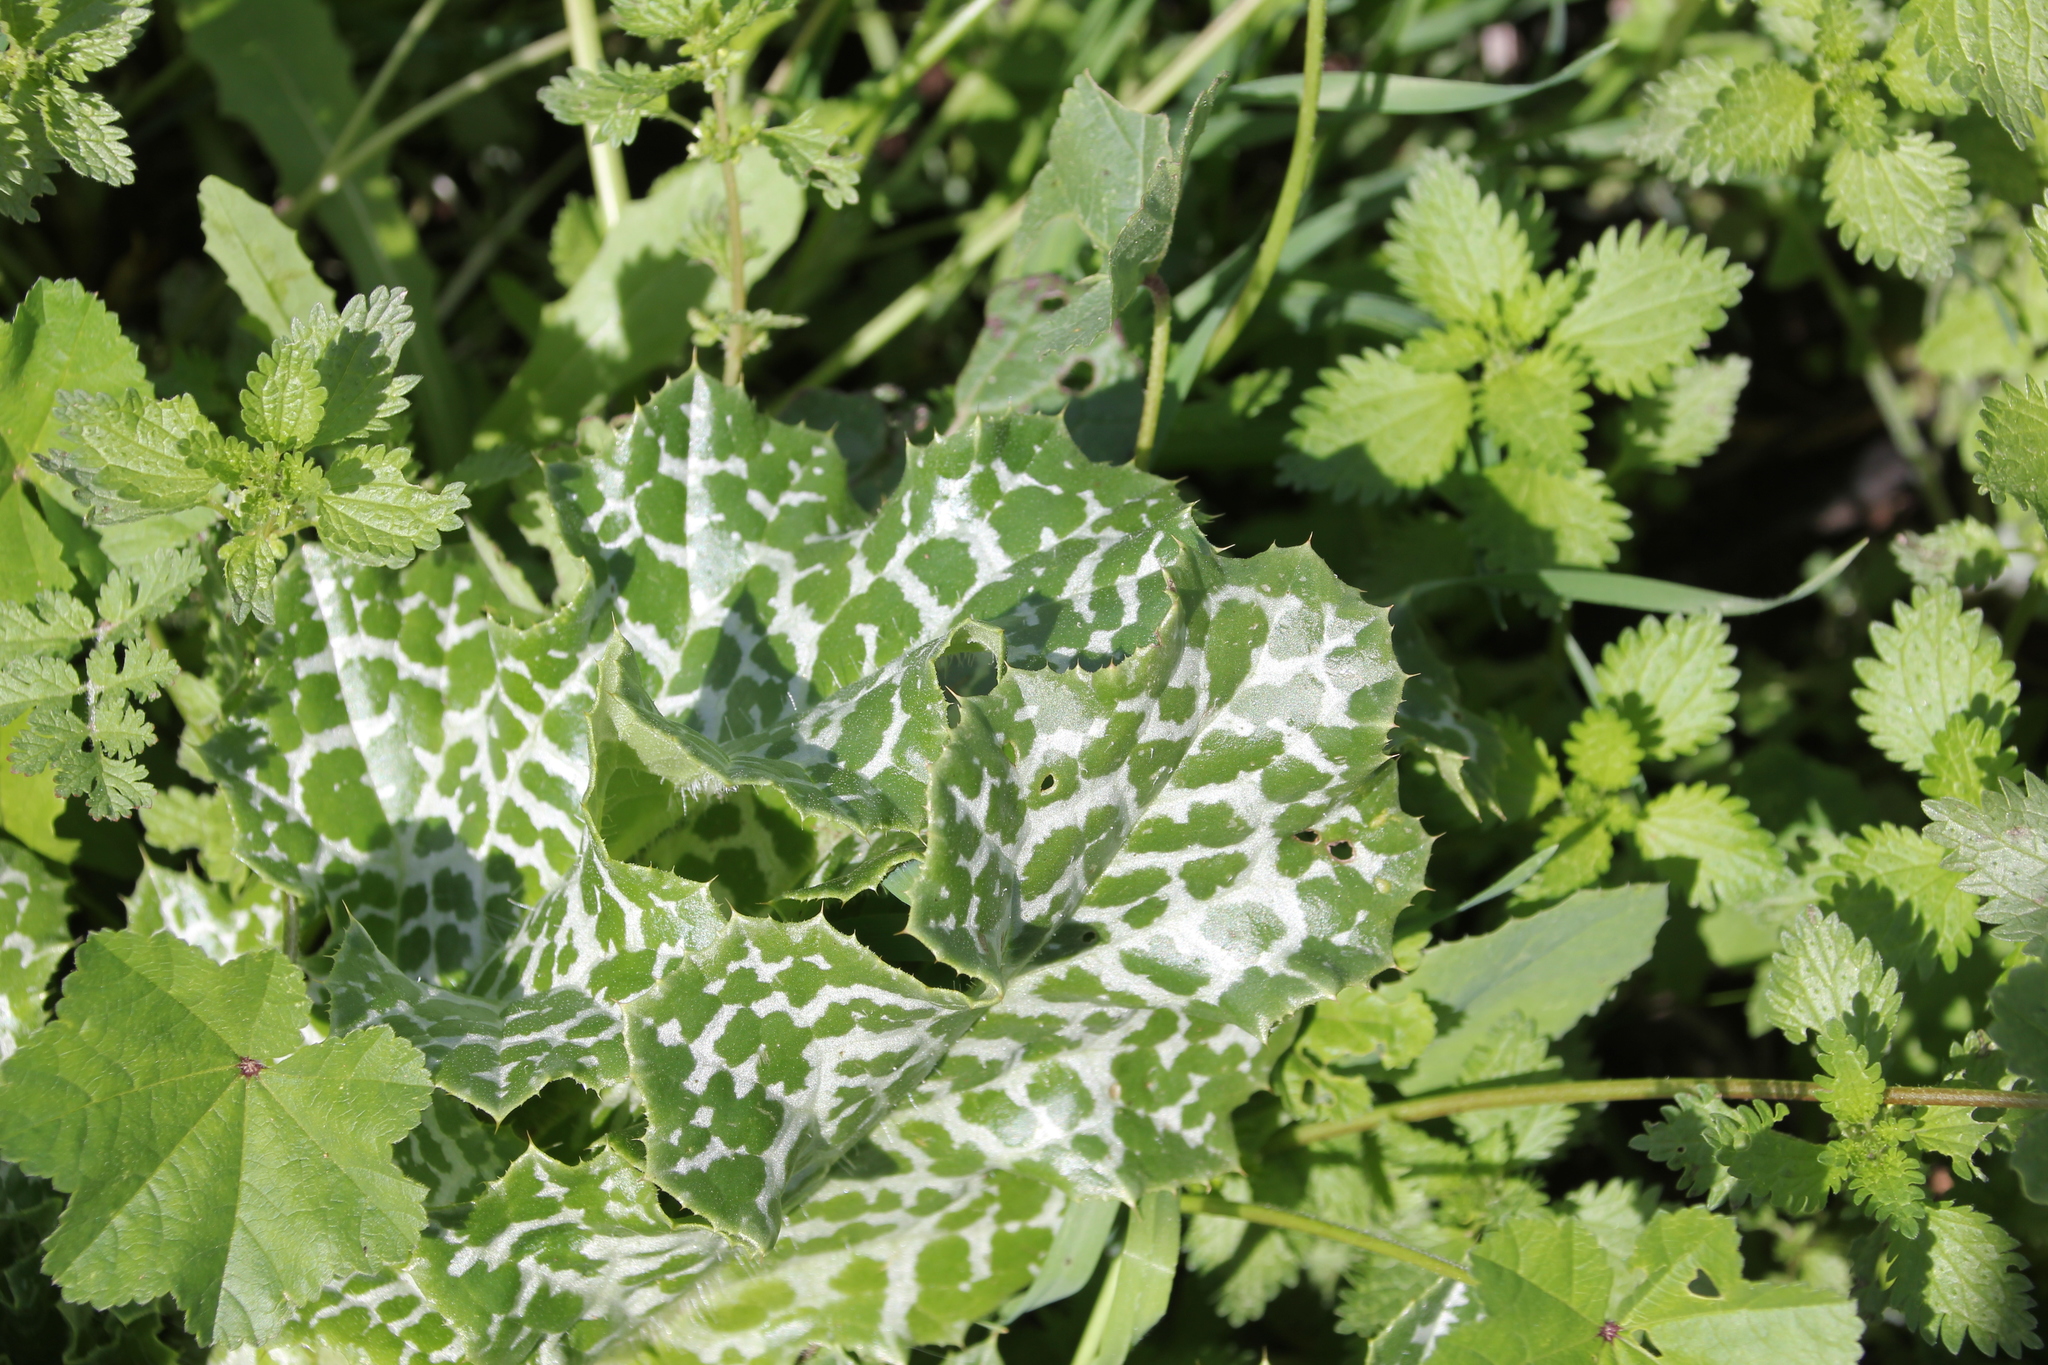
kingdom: Plantae
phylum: Tracheophyta
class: Magnoliopsida
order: Asterales
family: Asteraceae
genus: Silybum
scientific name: Silybum marianum
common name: Milk thistle
